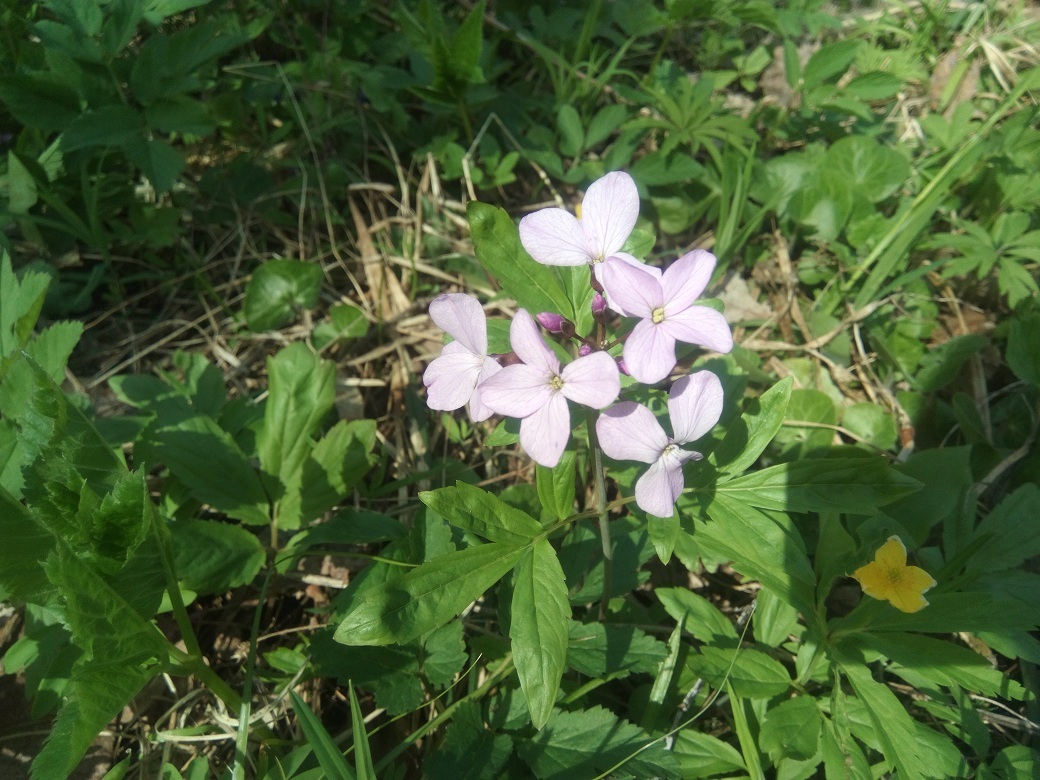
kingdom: Plantae
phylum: Tracheophyta
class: Magnoliopsida
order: Brassicales
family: Brassicaceae
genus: Cardamine
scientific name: Cardamine quinquefolia
